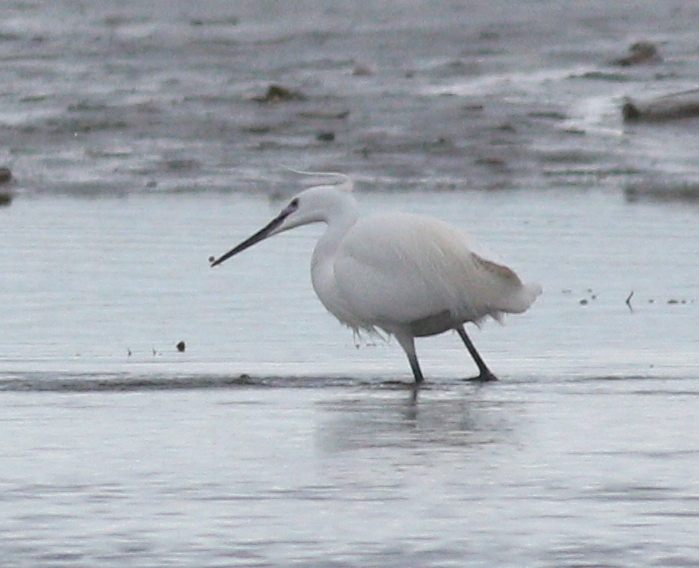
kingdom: Animalia
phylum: Chordata
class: Aves
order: Pelecaniformes
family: Ardeidae
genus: Egretta
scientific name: Egretta garzetta
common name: Little egret
